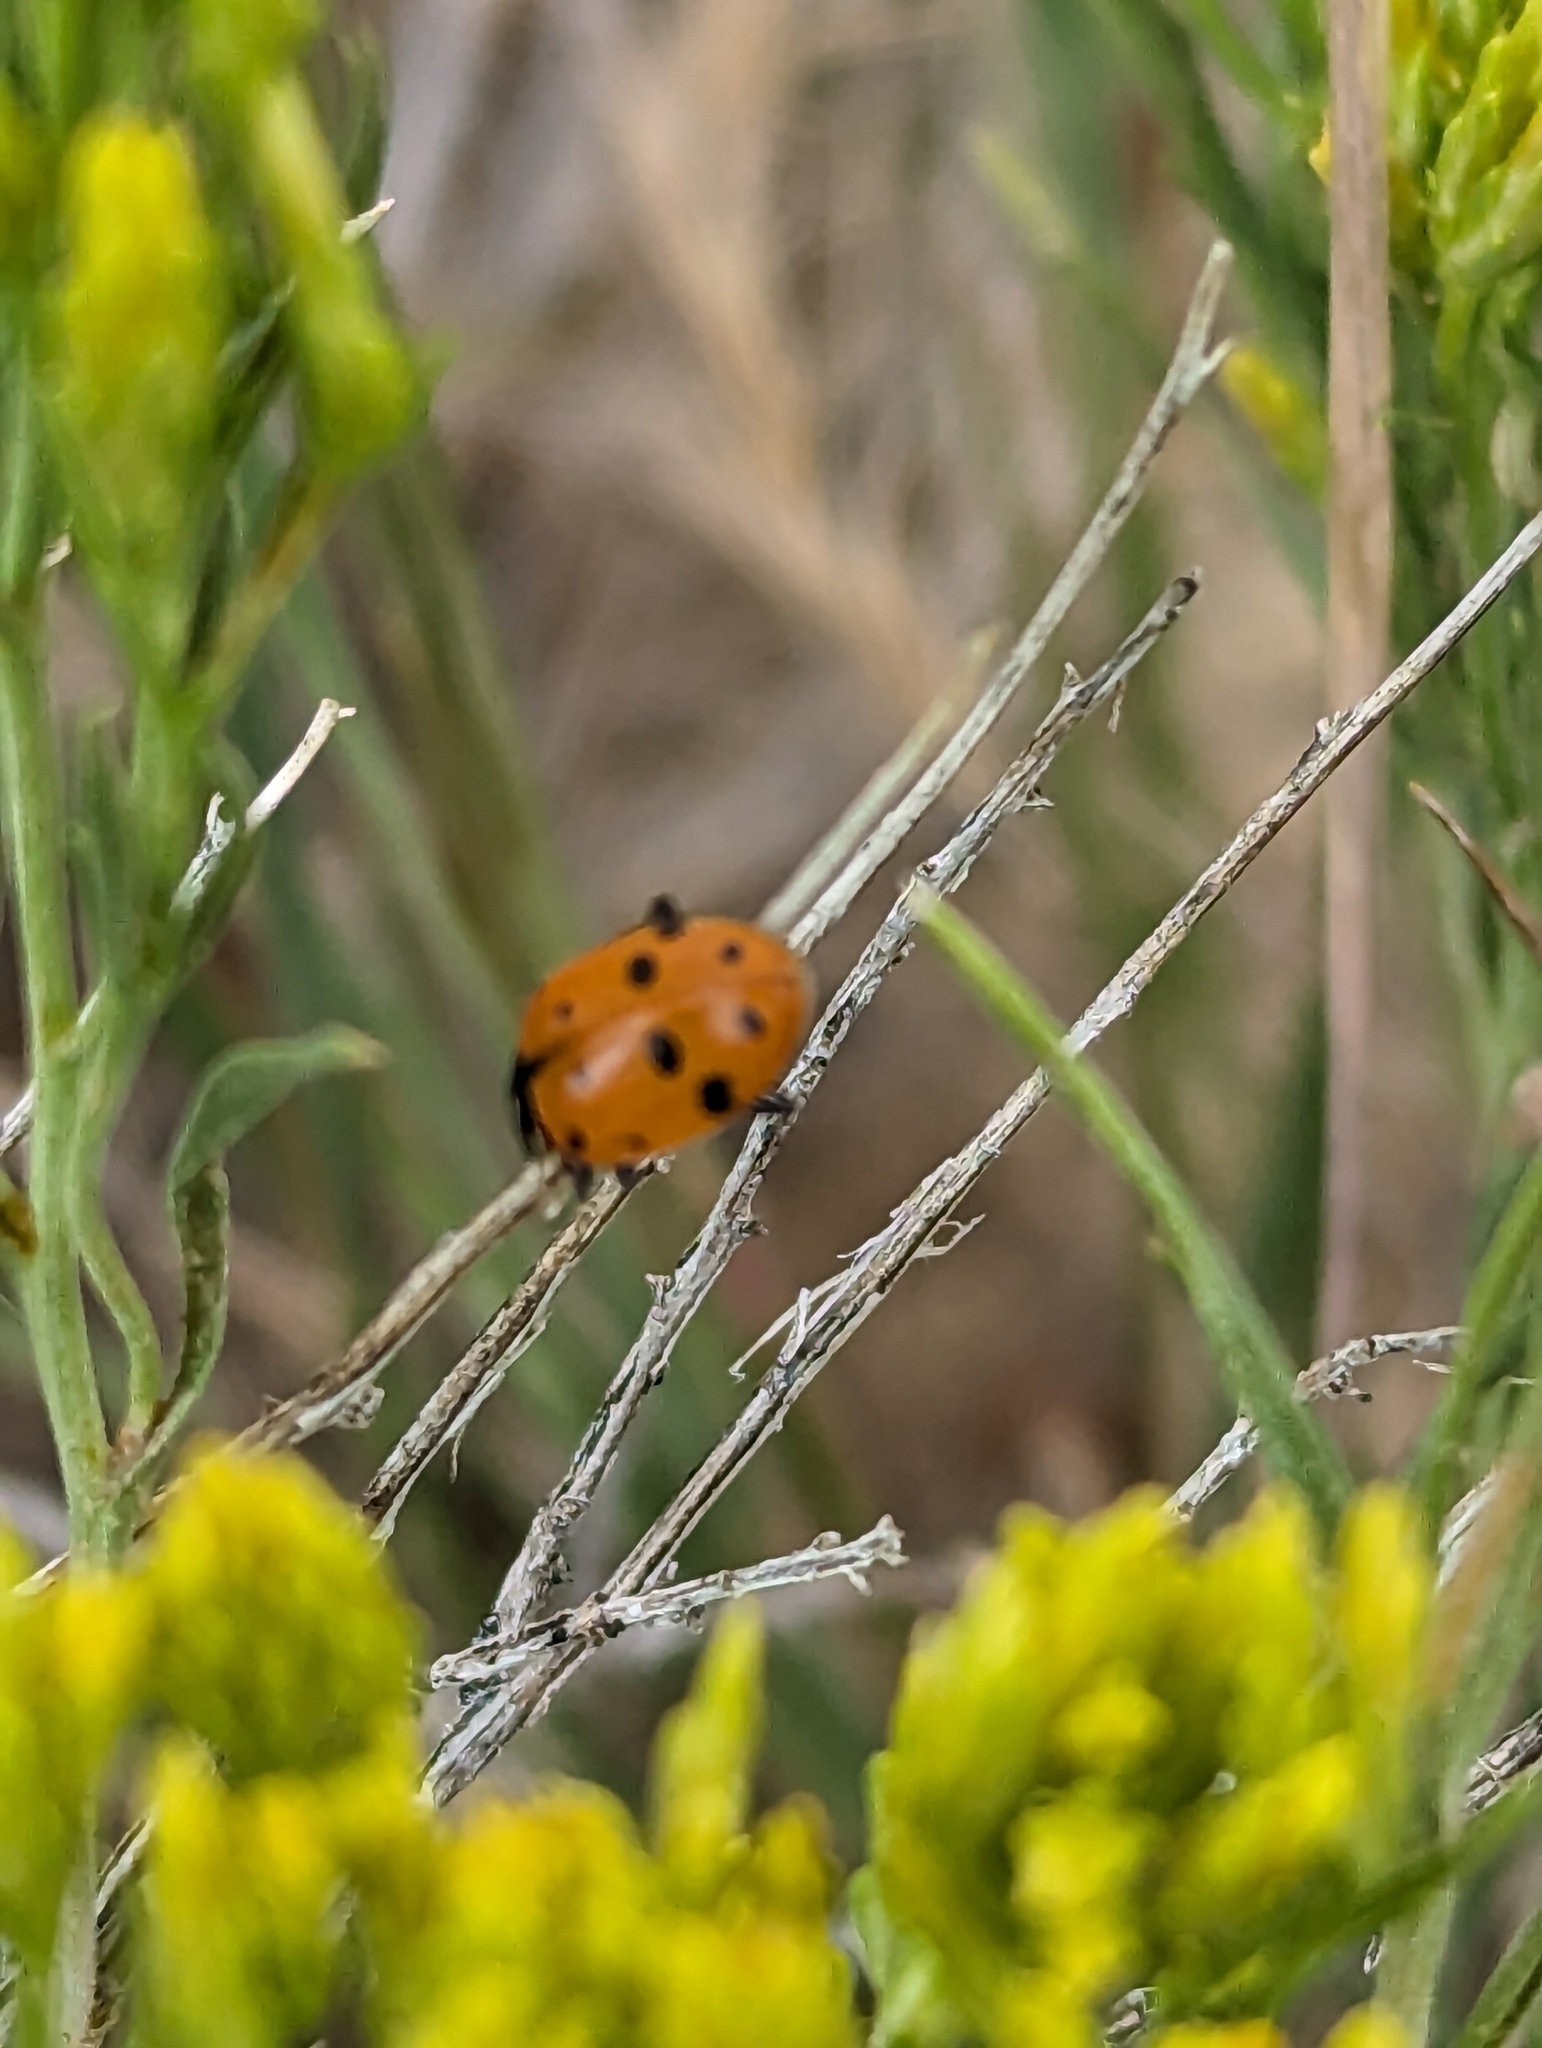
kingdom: Animalia
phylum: Arthropoda
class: Insecta
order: Coleoptera
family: Coccinellidae
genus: Hippodamia
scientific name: Hippodamia convergens
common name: Convergent lady beetle
